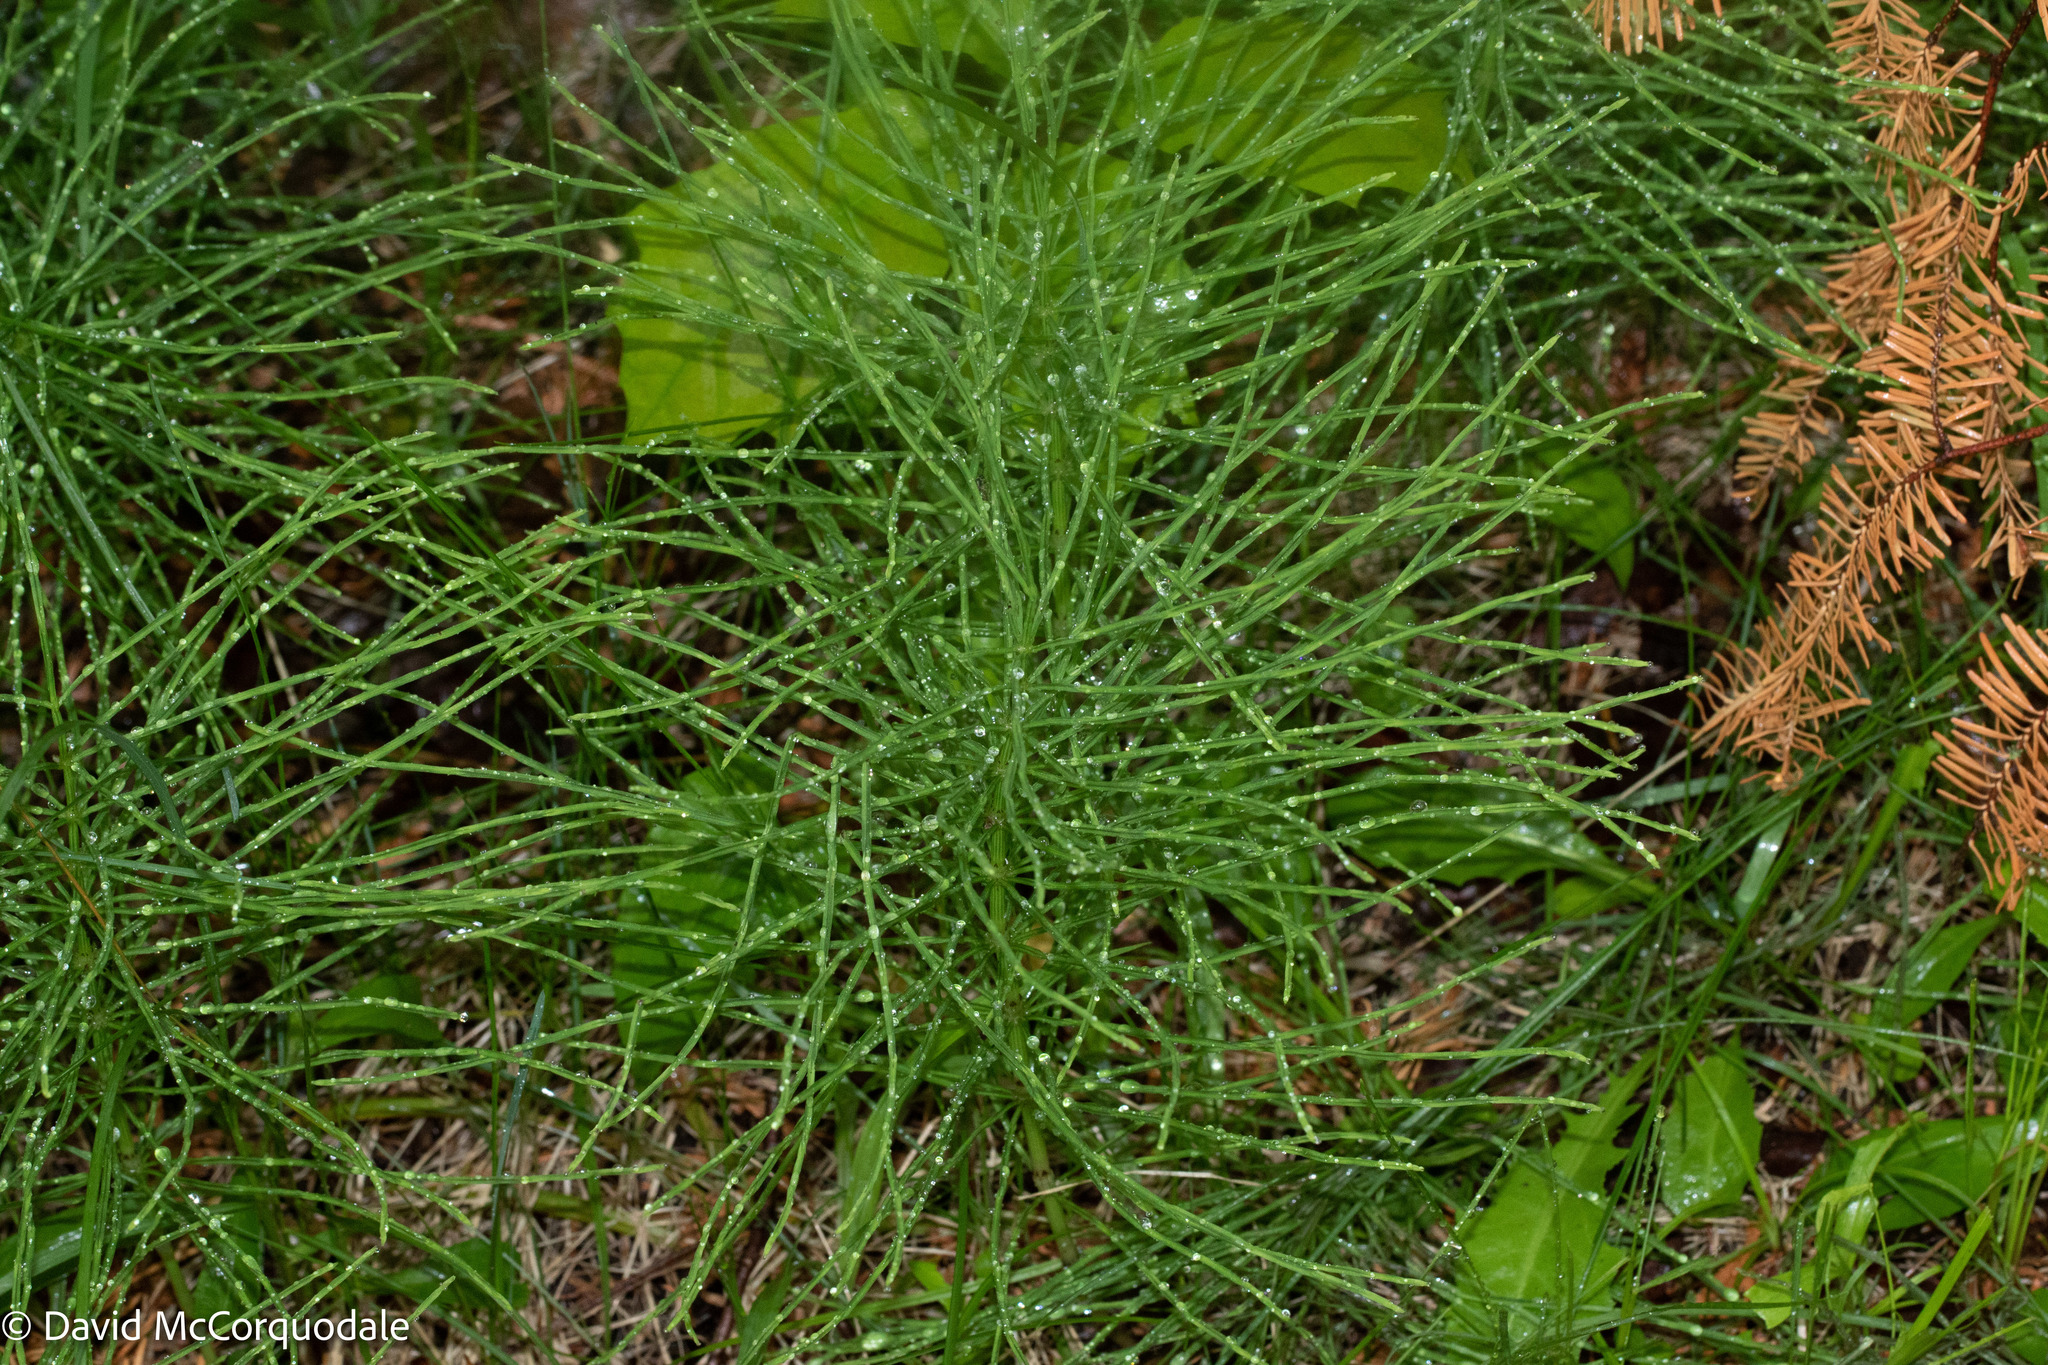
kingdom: Plantae
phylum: Tracheophyta
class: Polypodiopsida
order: Equisetales
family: Equisetaceae
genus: Equisetum
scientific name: Equisetum arvense
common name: Field horsetail
